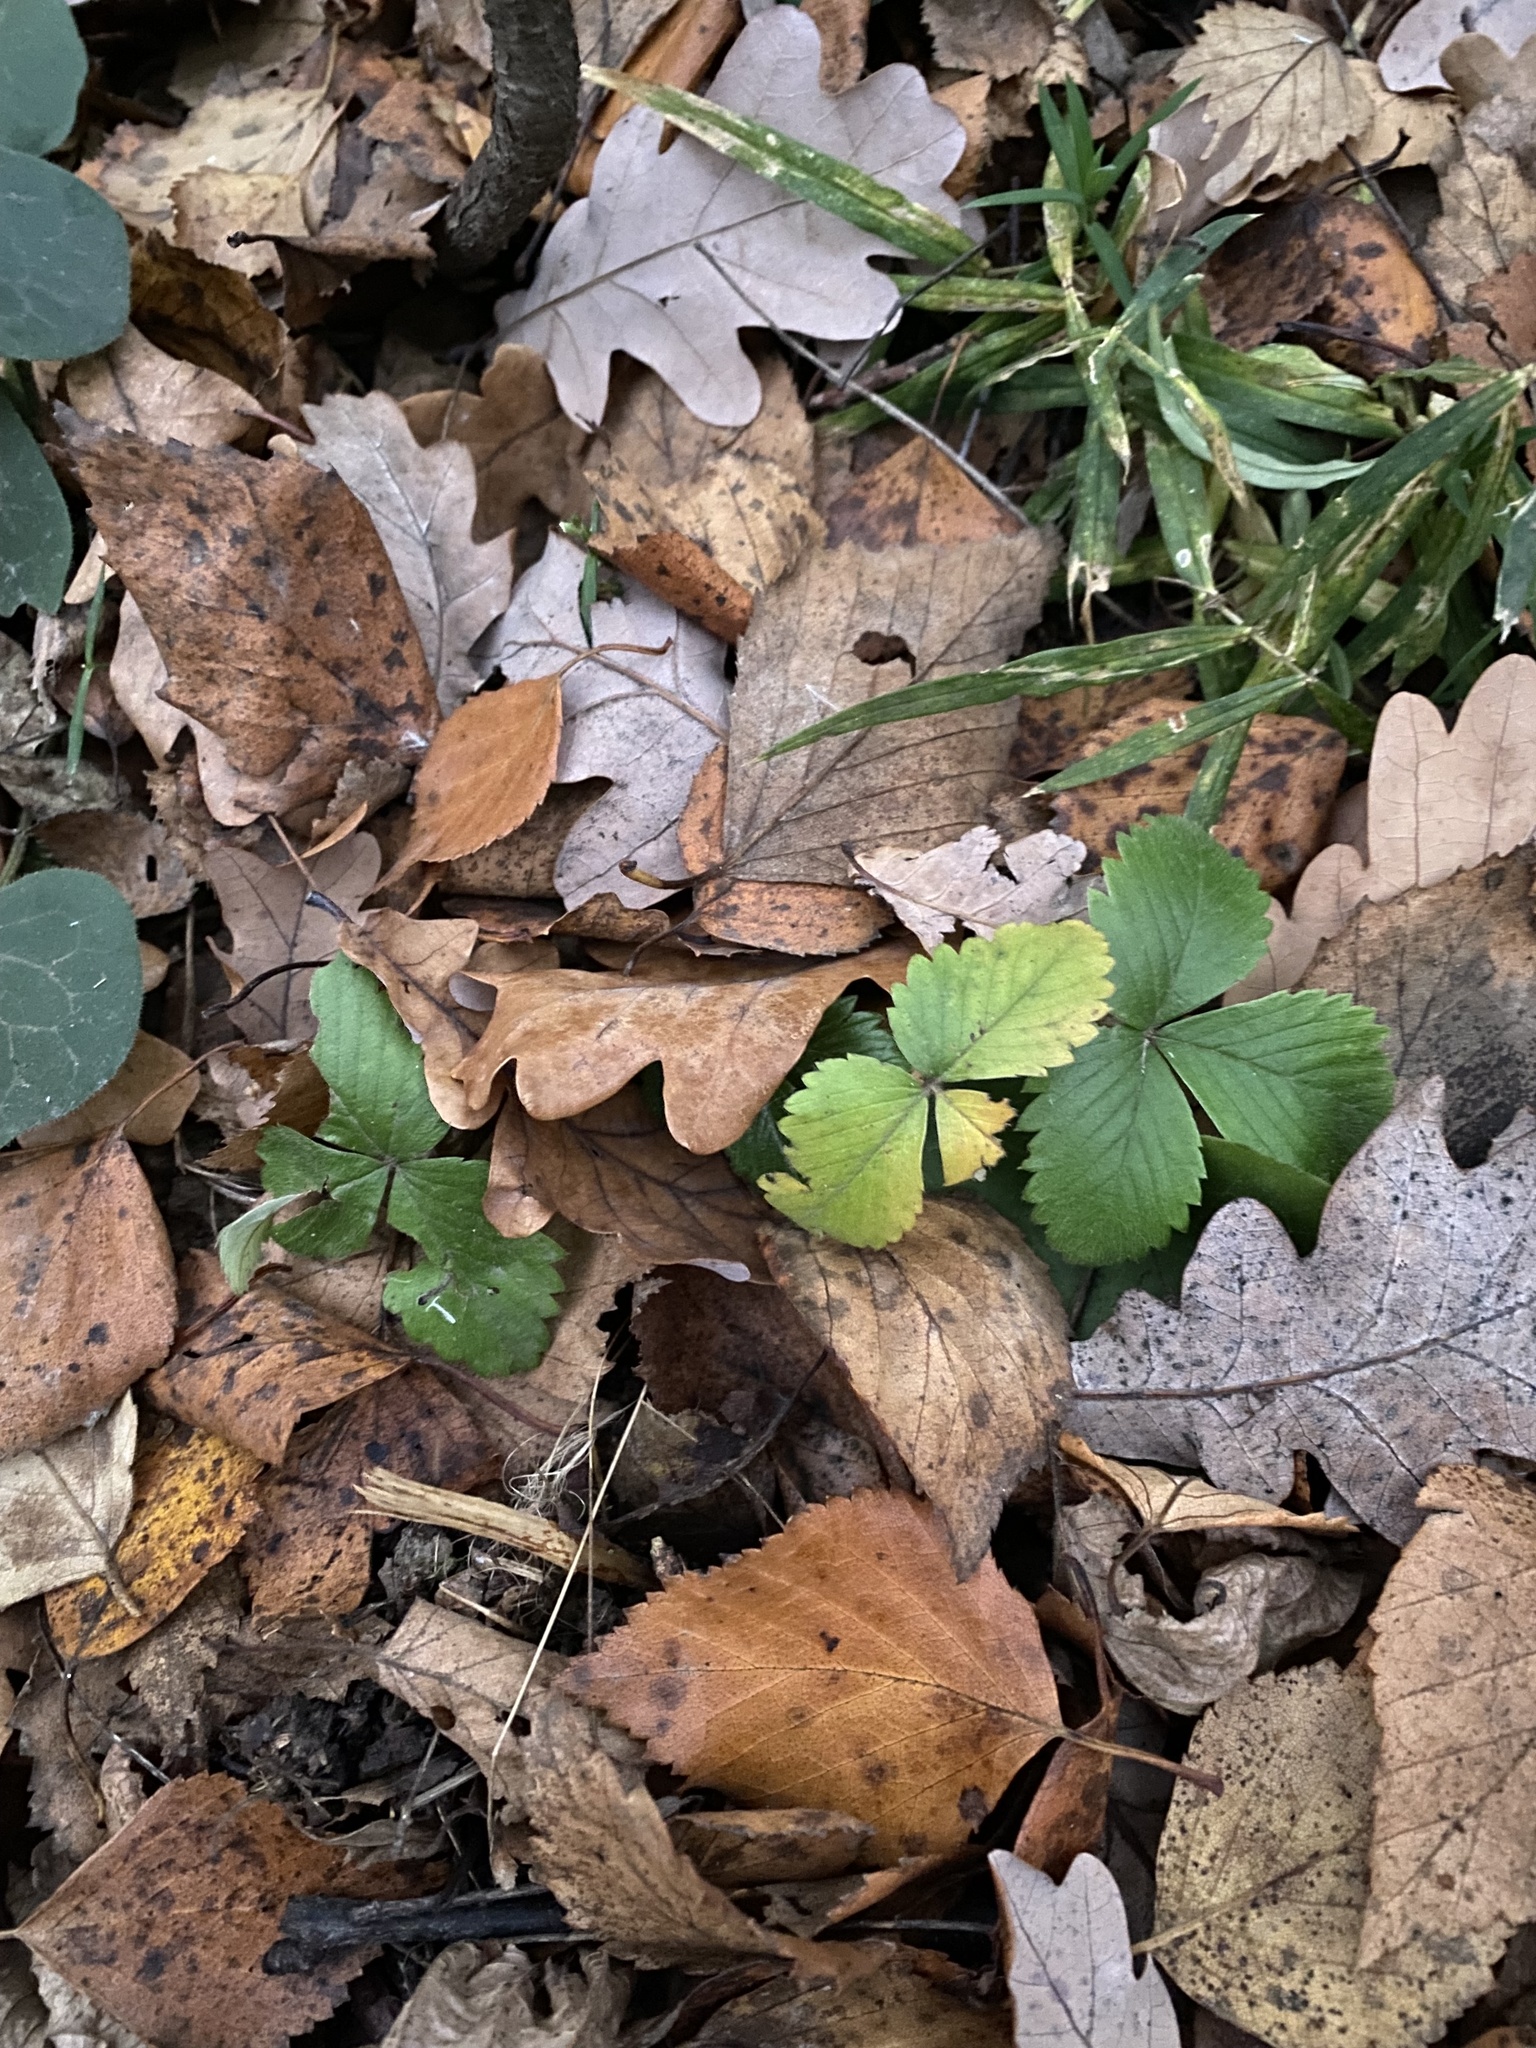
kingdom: Plantae
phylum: Tracheophyta
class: Magnoliopsida
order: Rosales
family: Rosaceae
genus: Fragaria
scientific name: Fragaria vesca
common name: Wild strawberry
